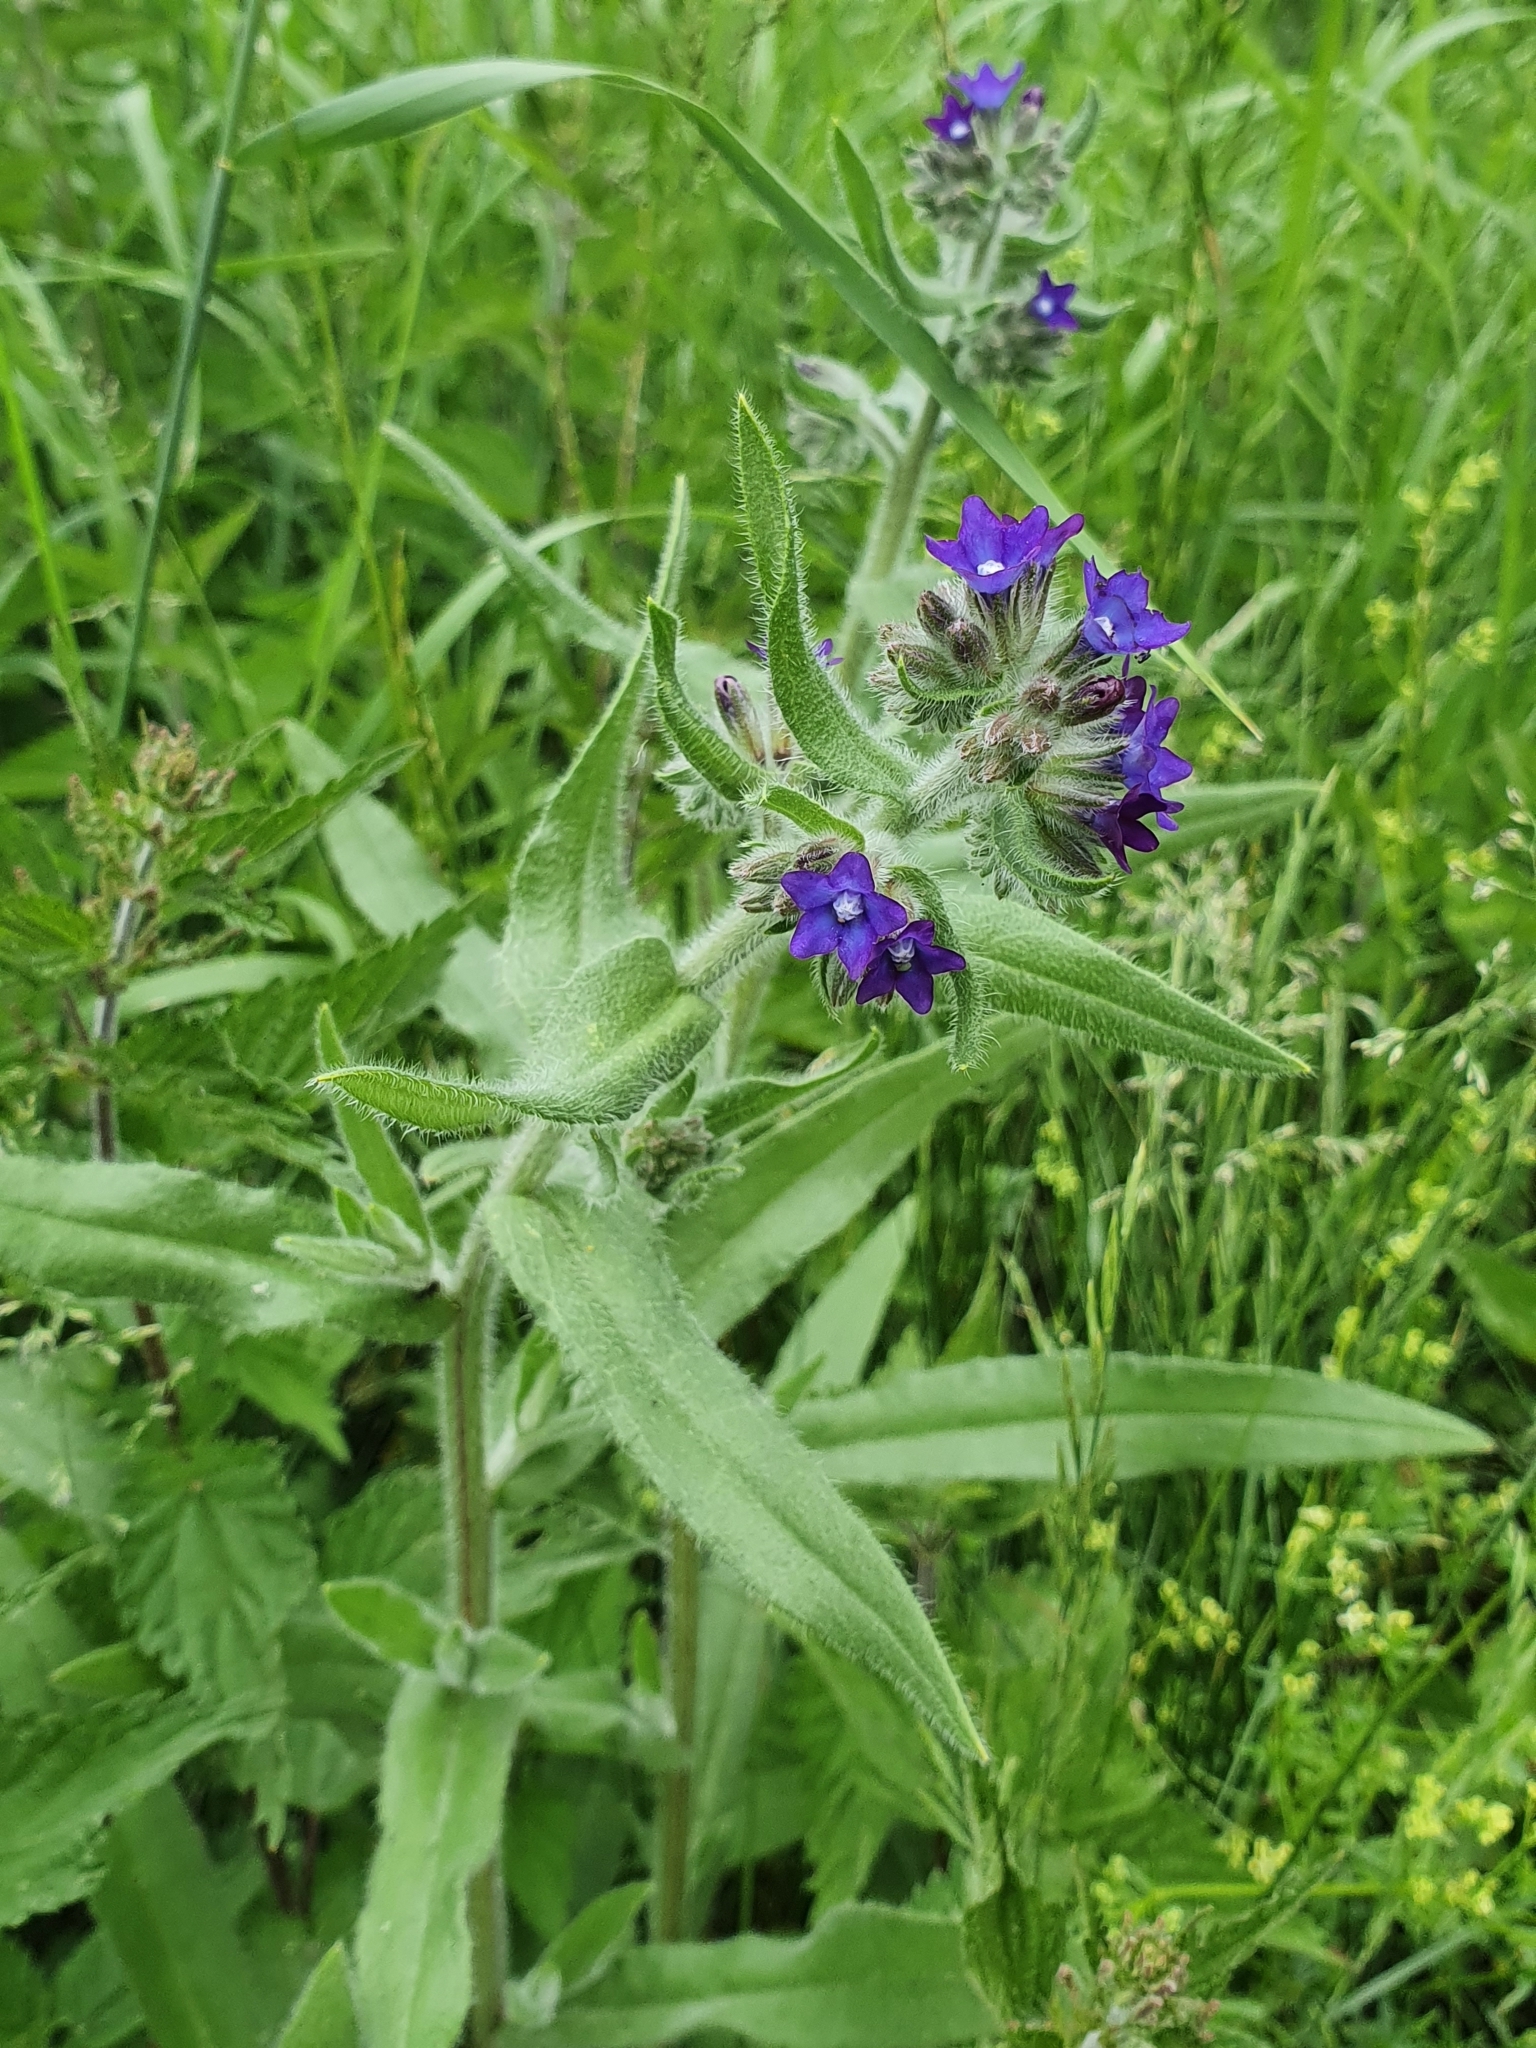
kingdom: Plantae
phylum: Tracheophyta
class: Magnoliopsida
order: Boraginales
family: Boraginaceae
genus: Anchusa
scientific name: Anchusa officinalis
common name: Alkanet
